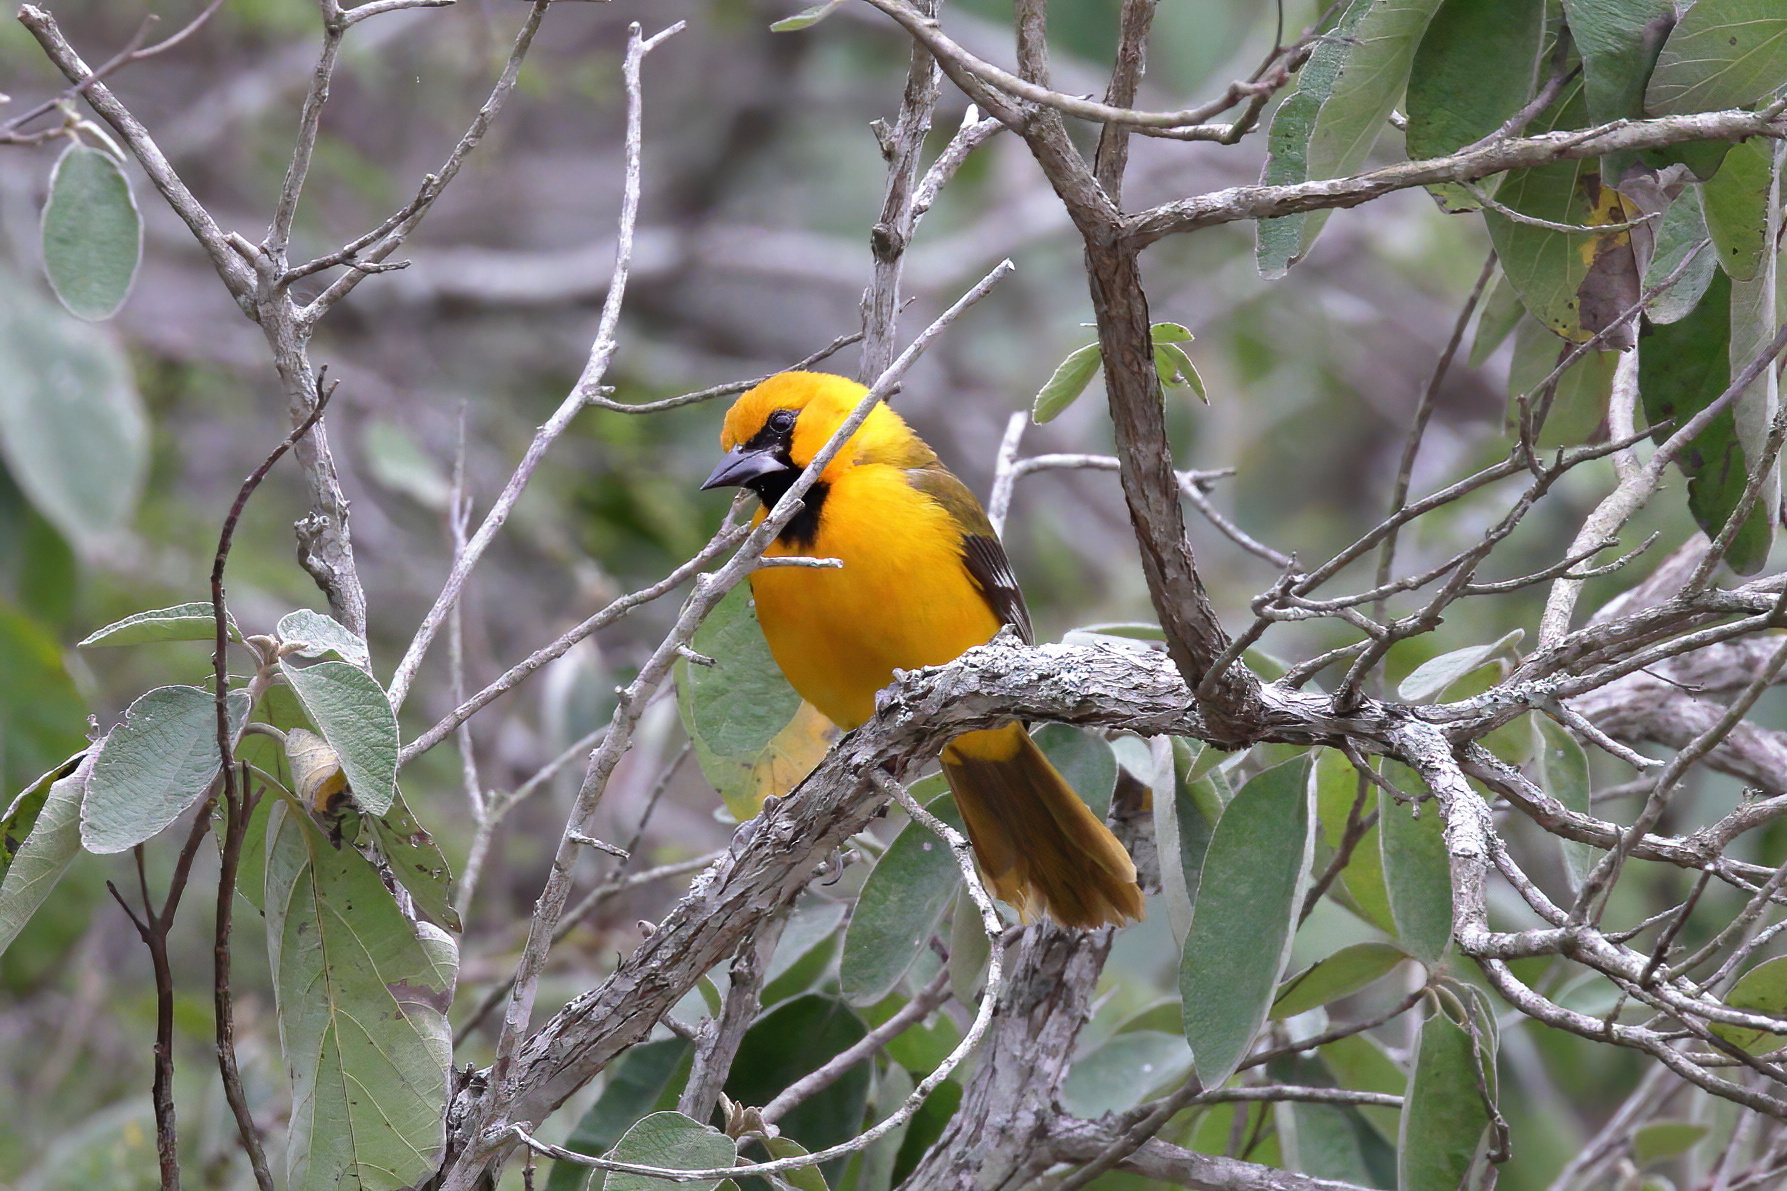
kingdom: Animalia
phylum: Chordata
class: Aves
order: Passeriformes
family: Icteridae
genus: Icterus
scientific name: Icterus gularis
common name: Altamira oriole
